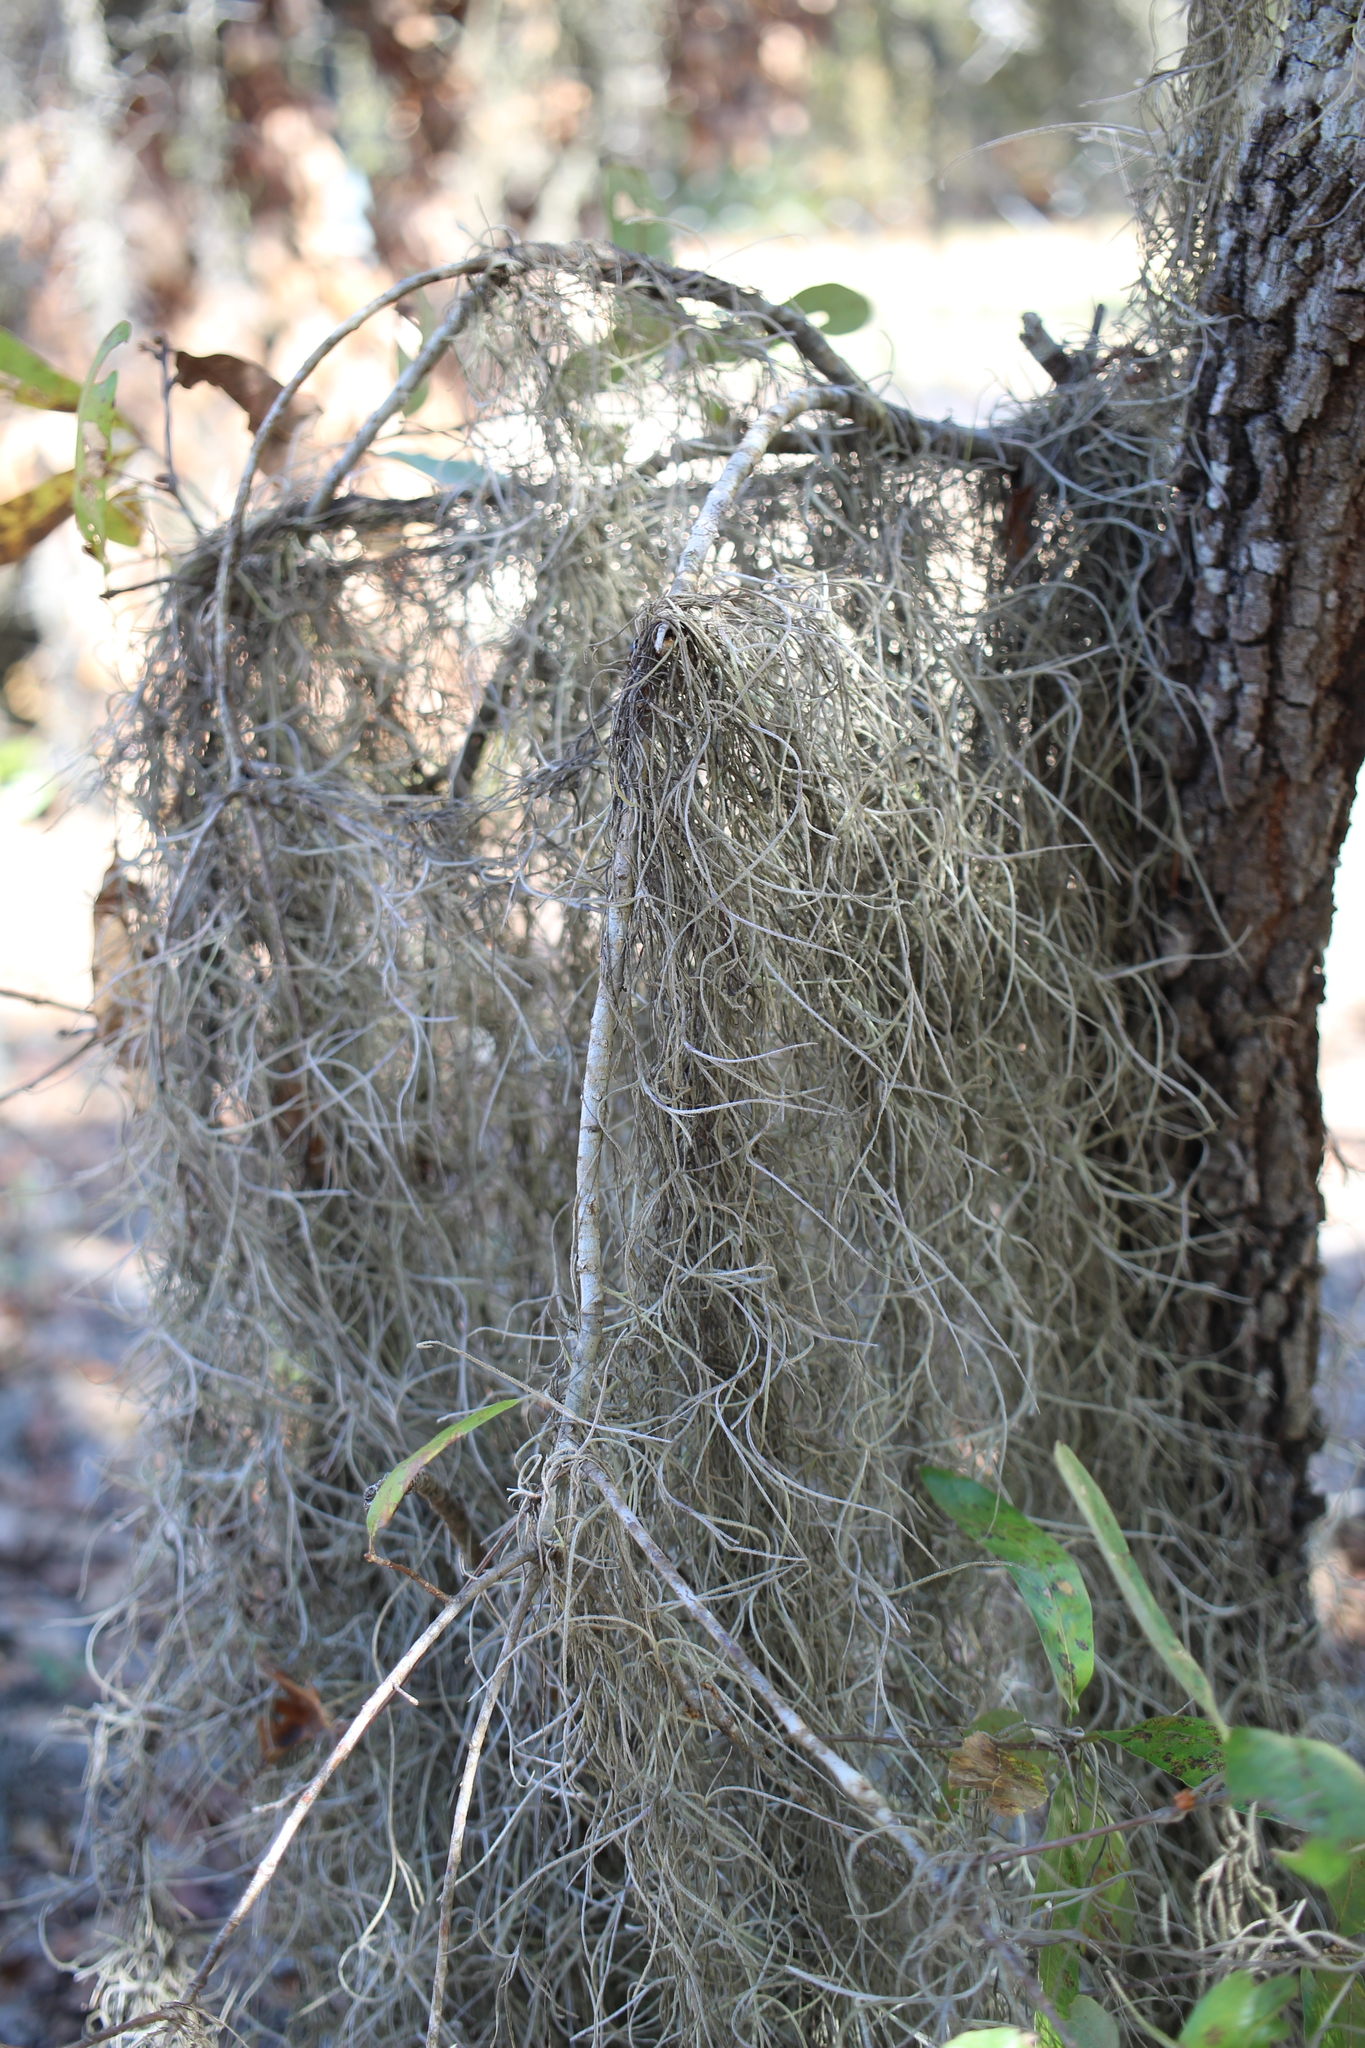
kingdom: Plantae
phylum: Tracheophyta
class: Liliopsida
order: Poales
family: Bromeliaceae
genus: Tillandsia
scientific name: Tillandsia usneoides
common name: Spanish moss
